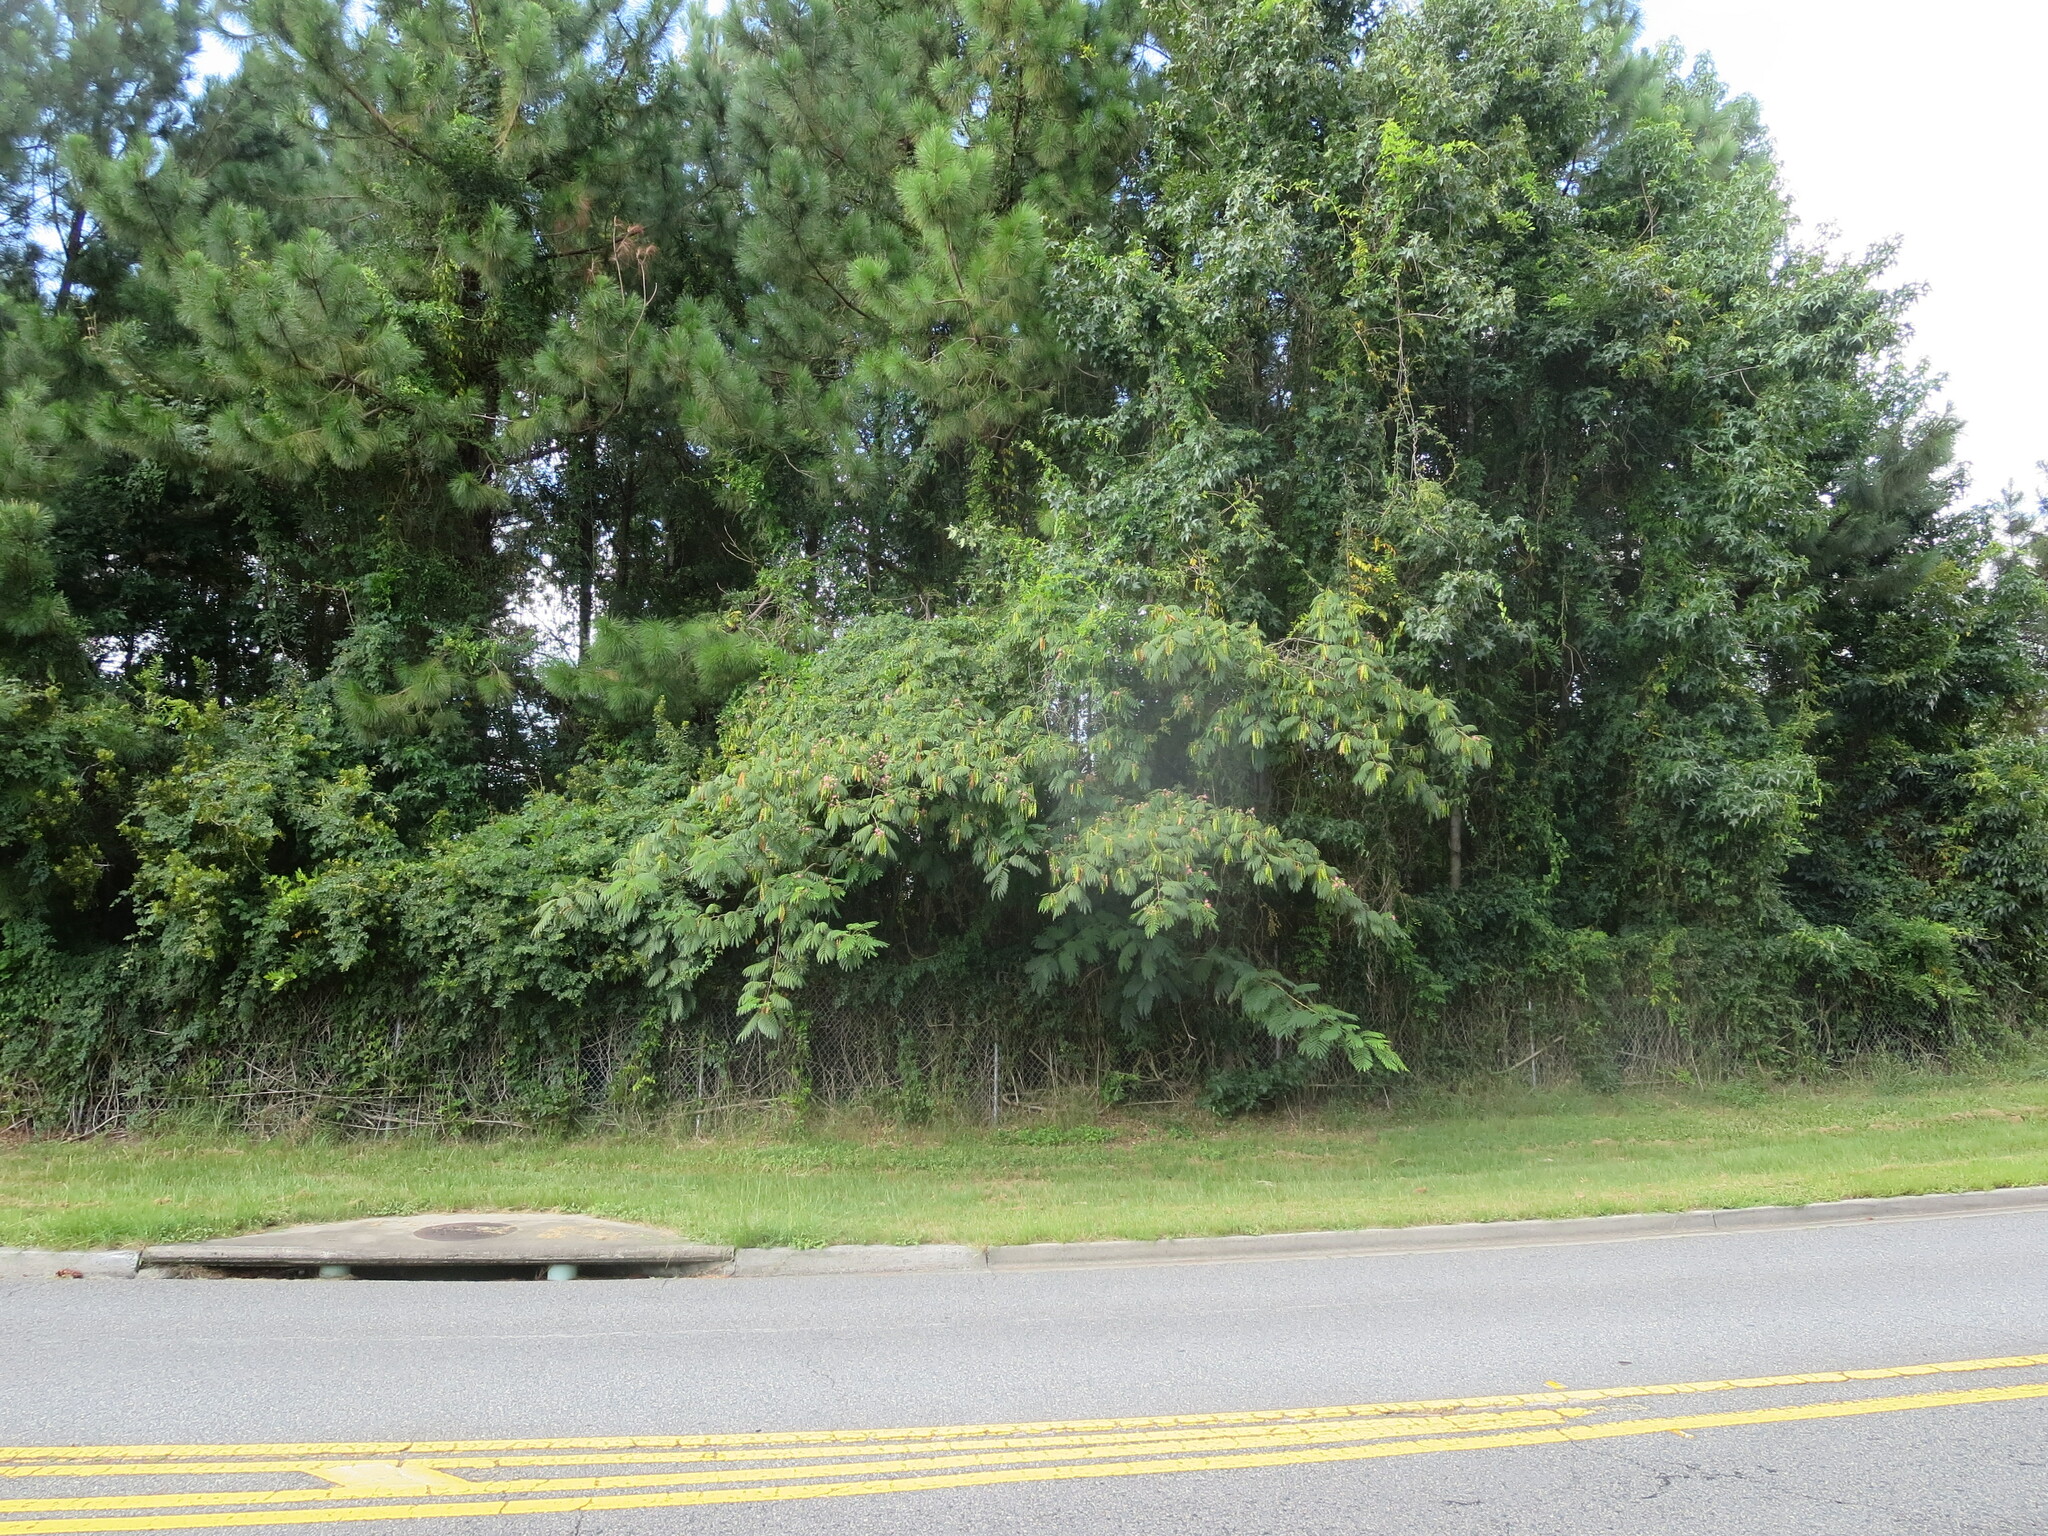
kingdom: Plantae
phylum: Tracheophyta
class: Magnoliopsida
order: Fabales
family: Fabaceae
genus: Albizia
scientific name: Albizia julibrissin
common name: Silktree
